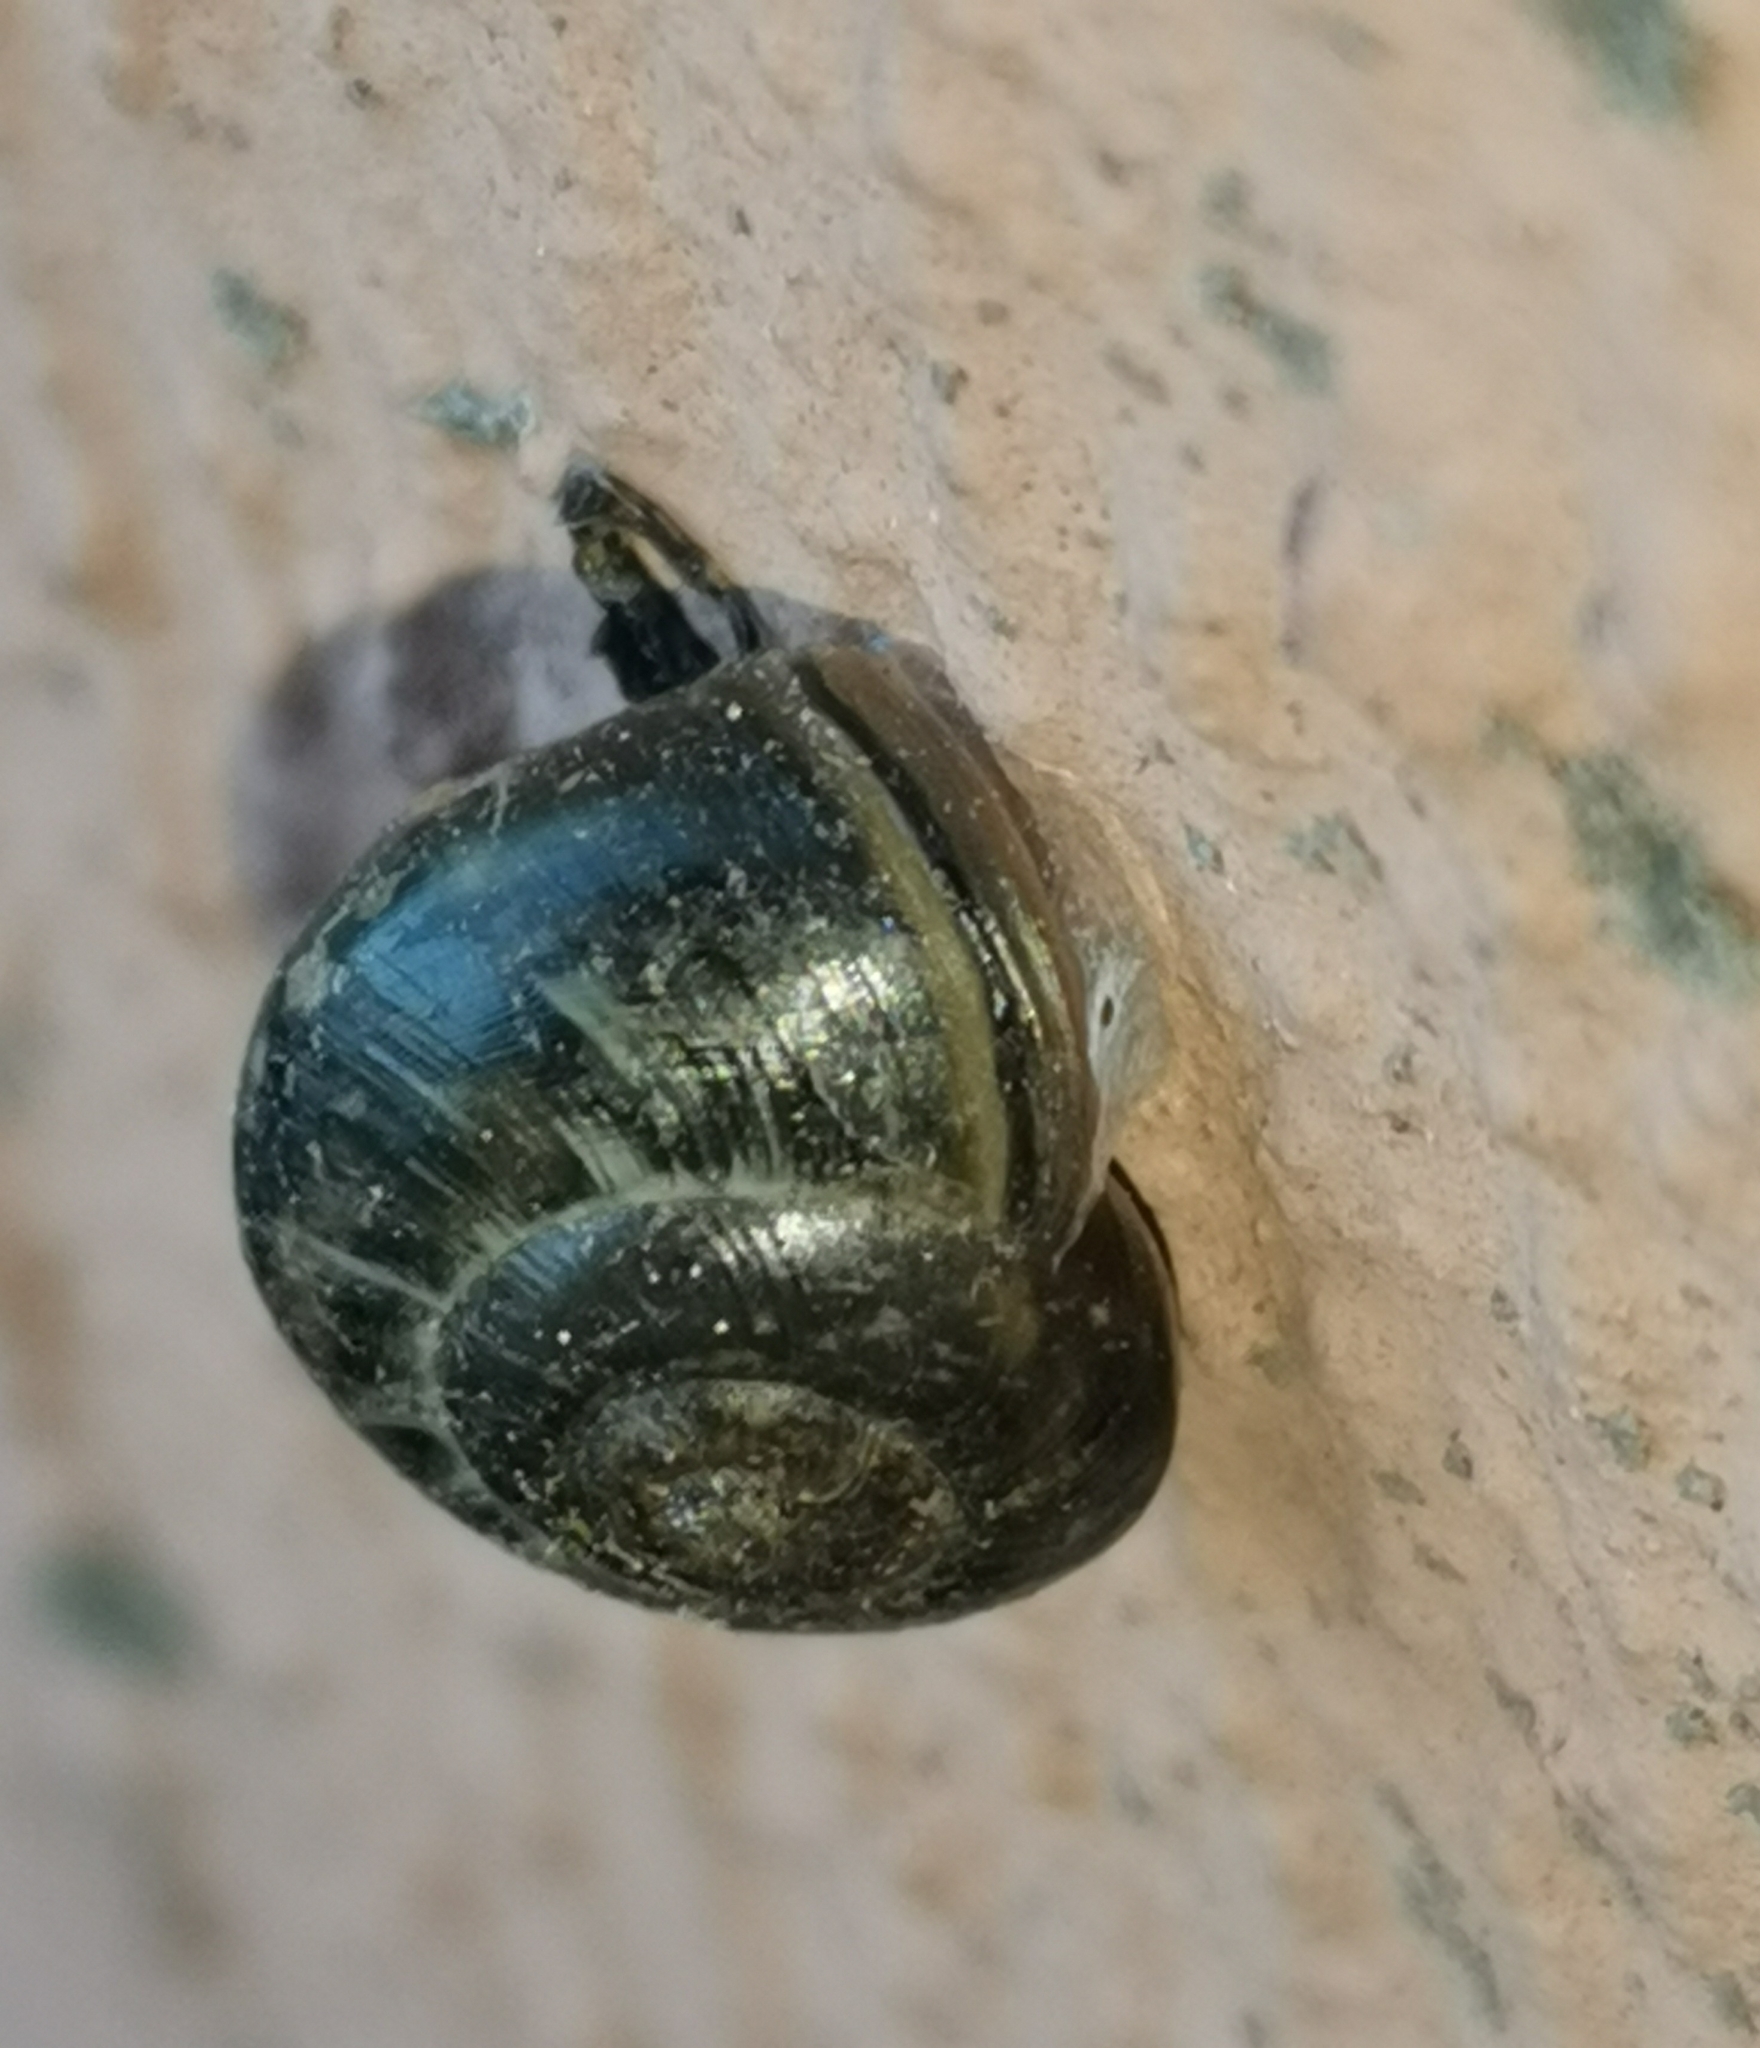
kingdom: Animalia
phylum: Mollusca
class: Gastropoda
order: Stylommatophora
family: Helicidae
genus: Arianta
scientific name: Arianta arbustorum
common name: Copse snail
